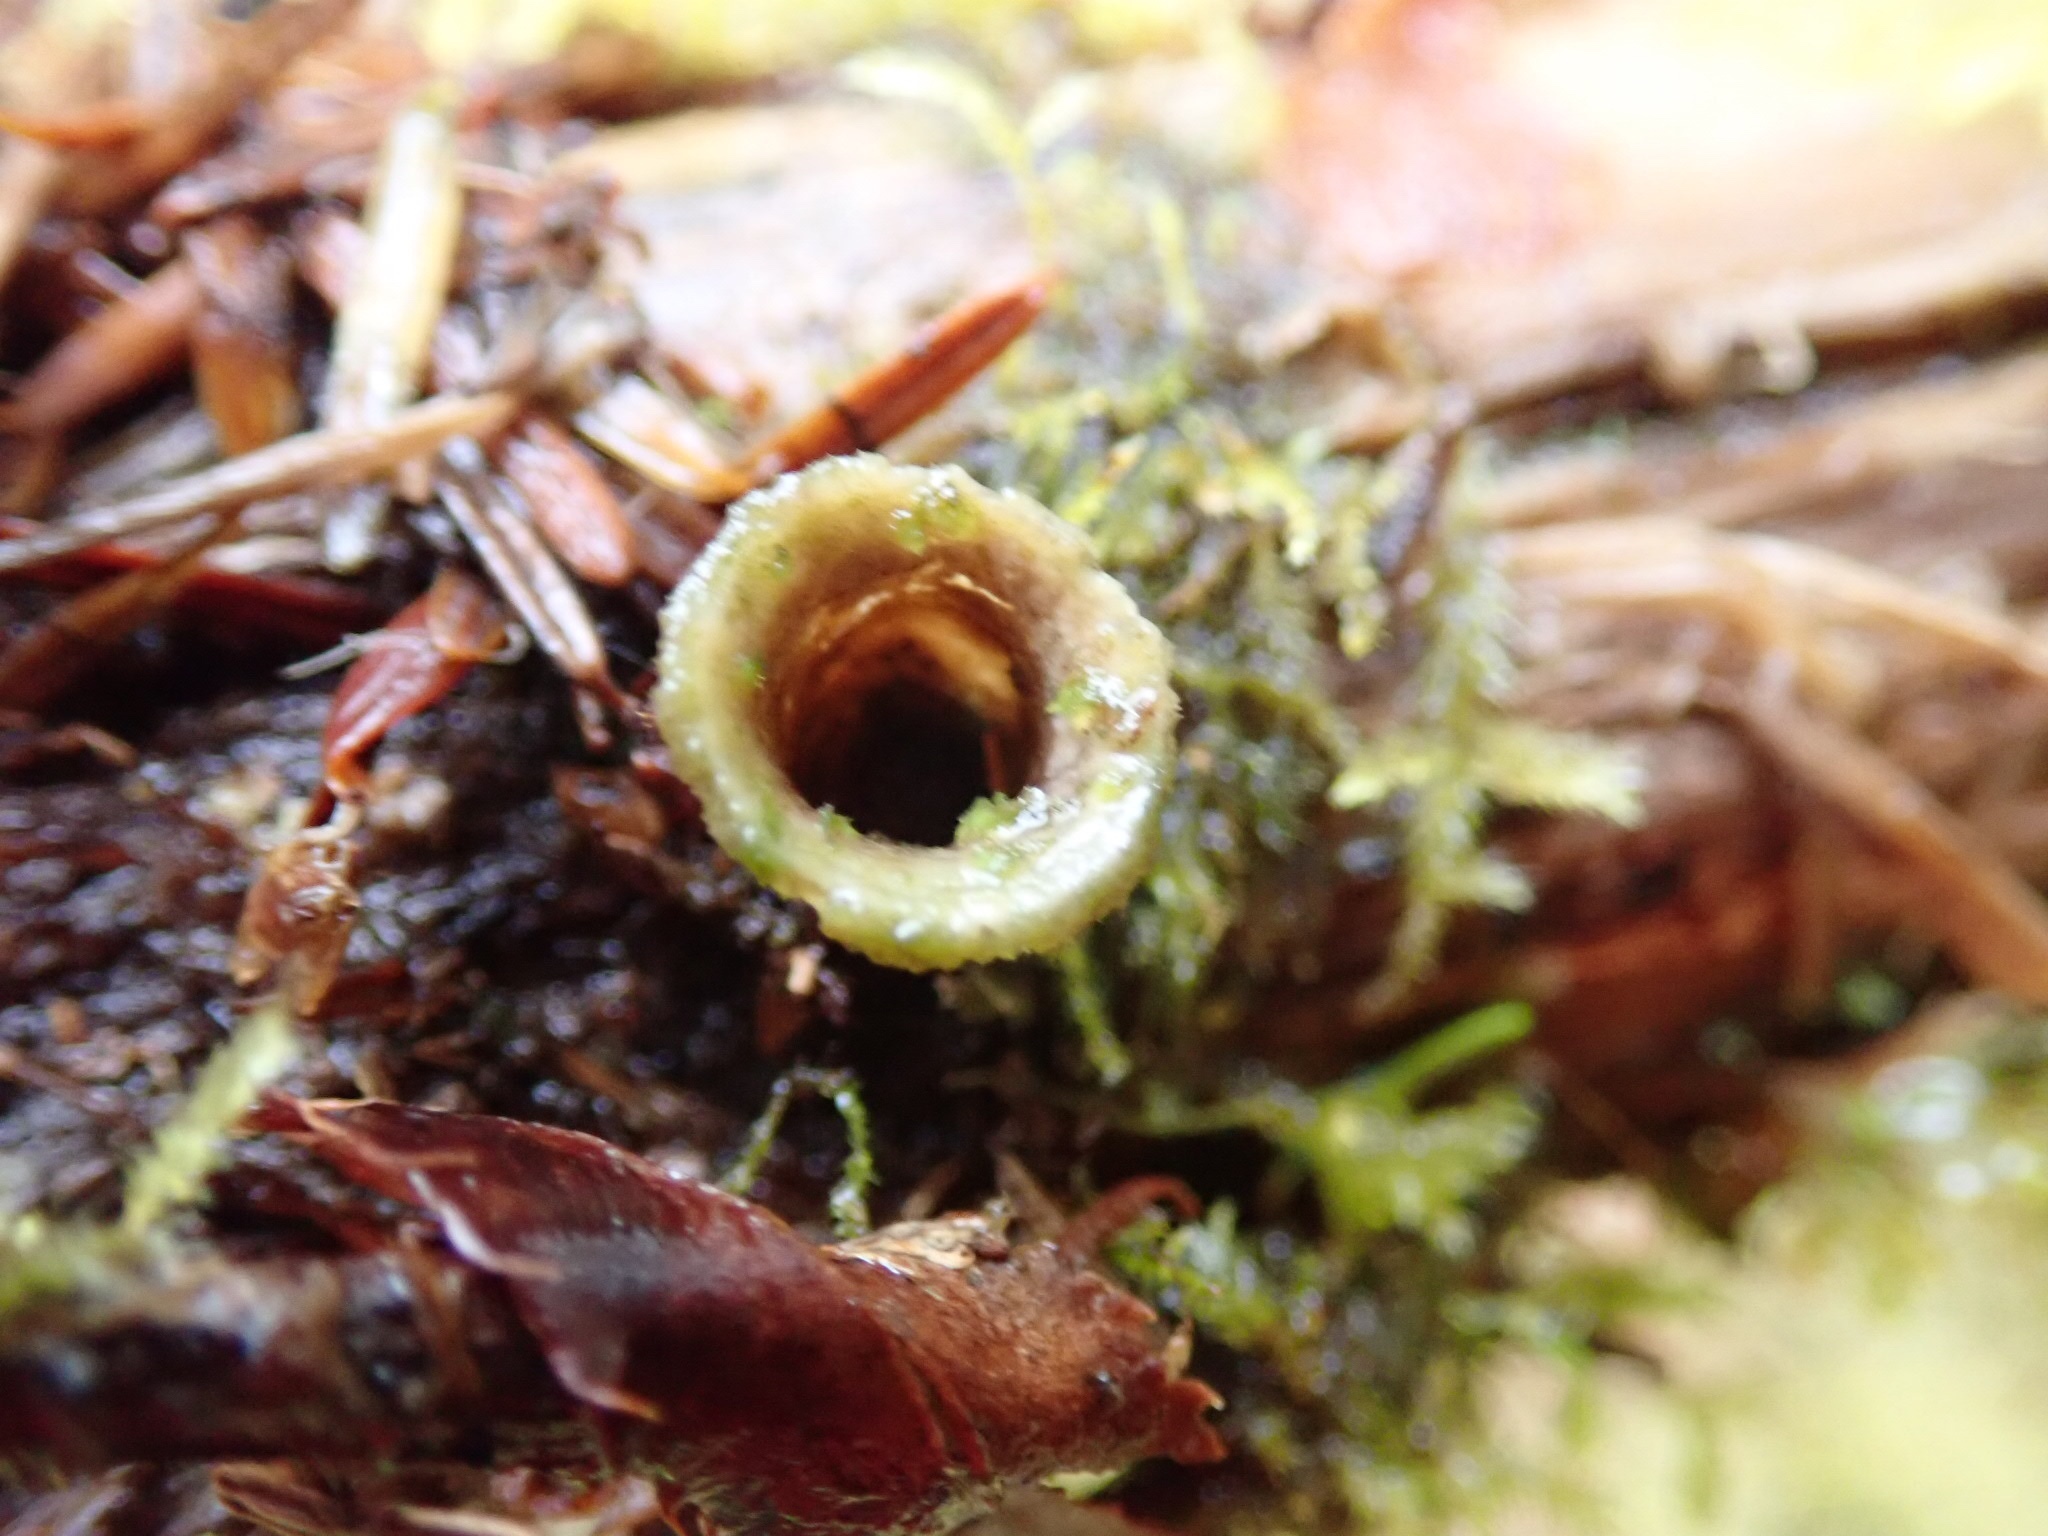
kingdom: Plantae
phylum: Tracheophyta
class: Liliopsida
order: Asparagales
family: Asparagaceae
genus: Maianthemum
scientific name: Maianthemum dilatatum
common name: False lily-of-the-valley
